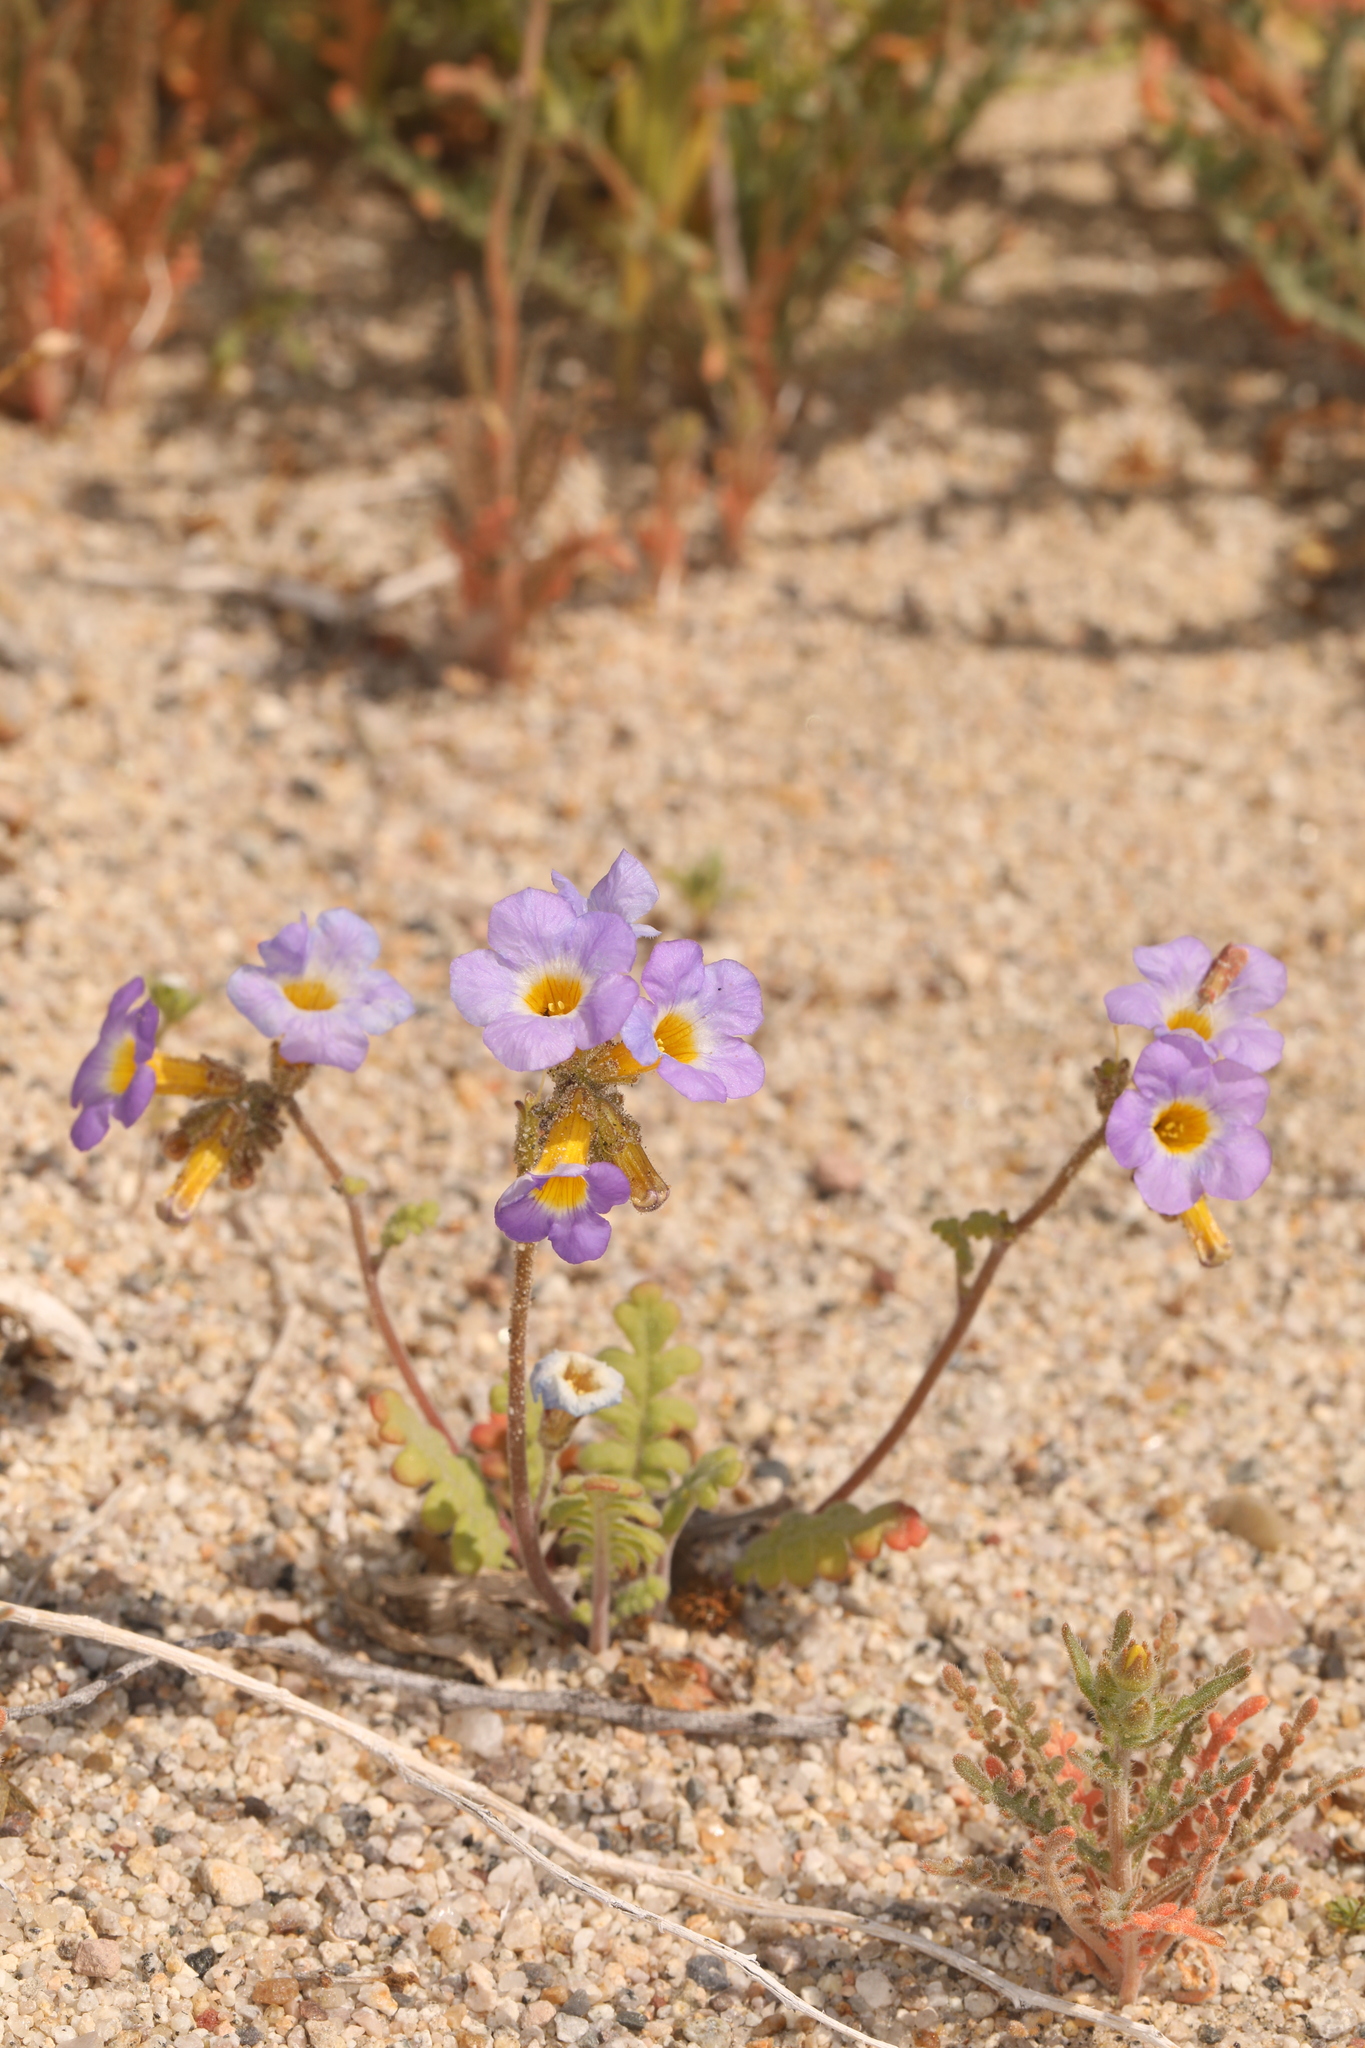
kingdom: Plantae
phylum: Tracheophyta
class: Magnoliopsida
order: Boraginales
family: Hydrophyllaceae
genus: Phacelia
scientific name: Phacelia fremontii
